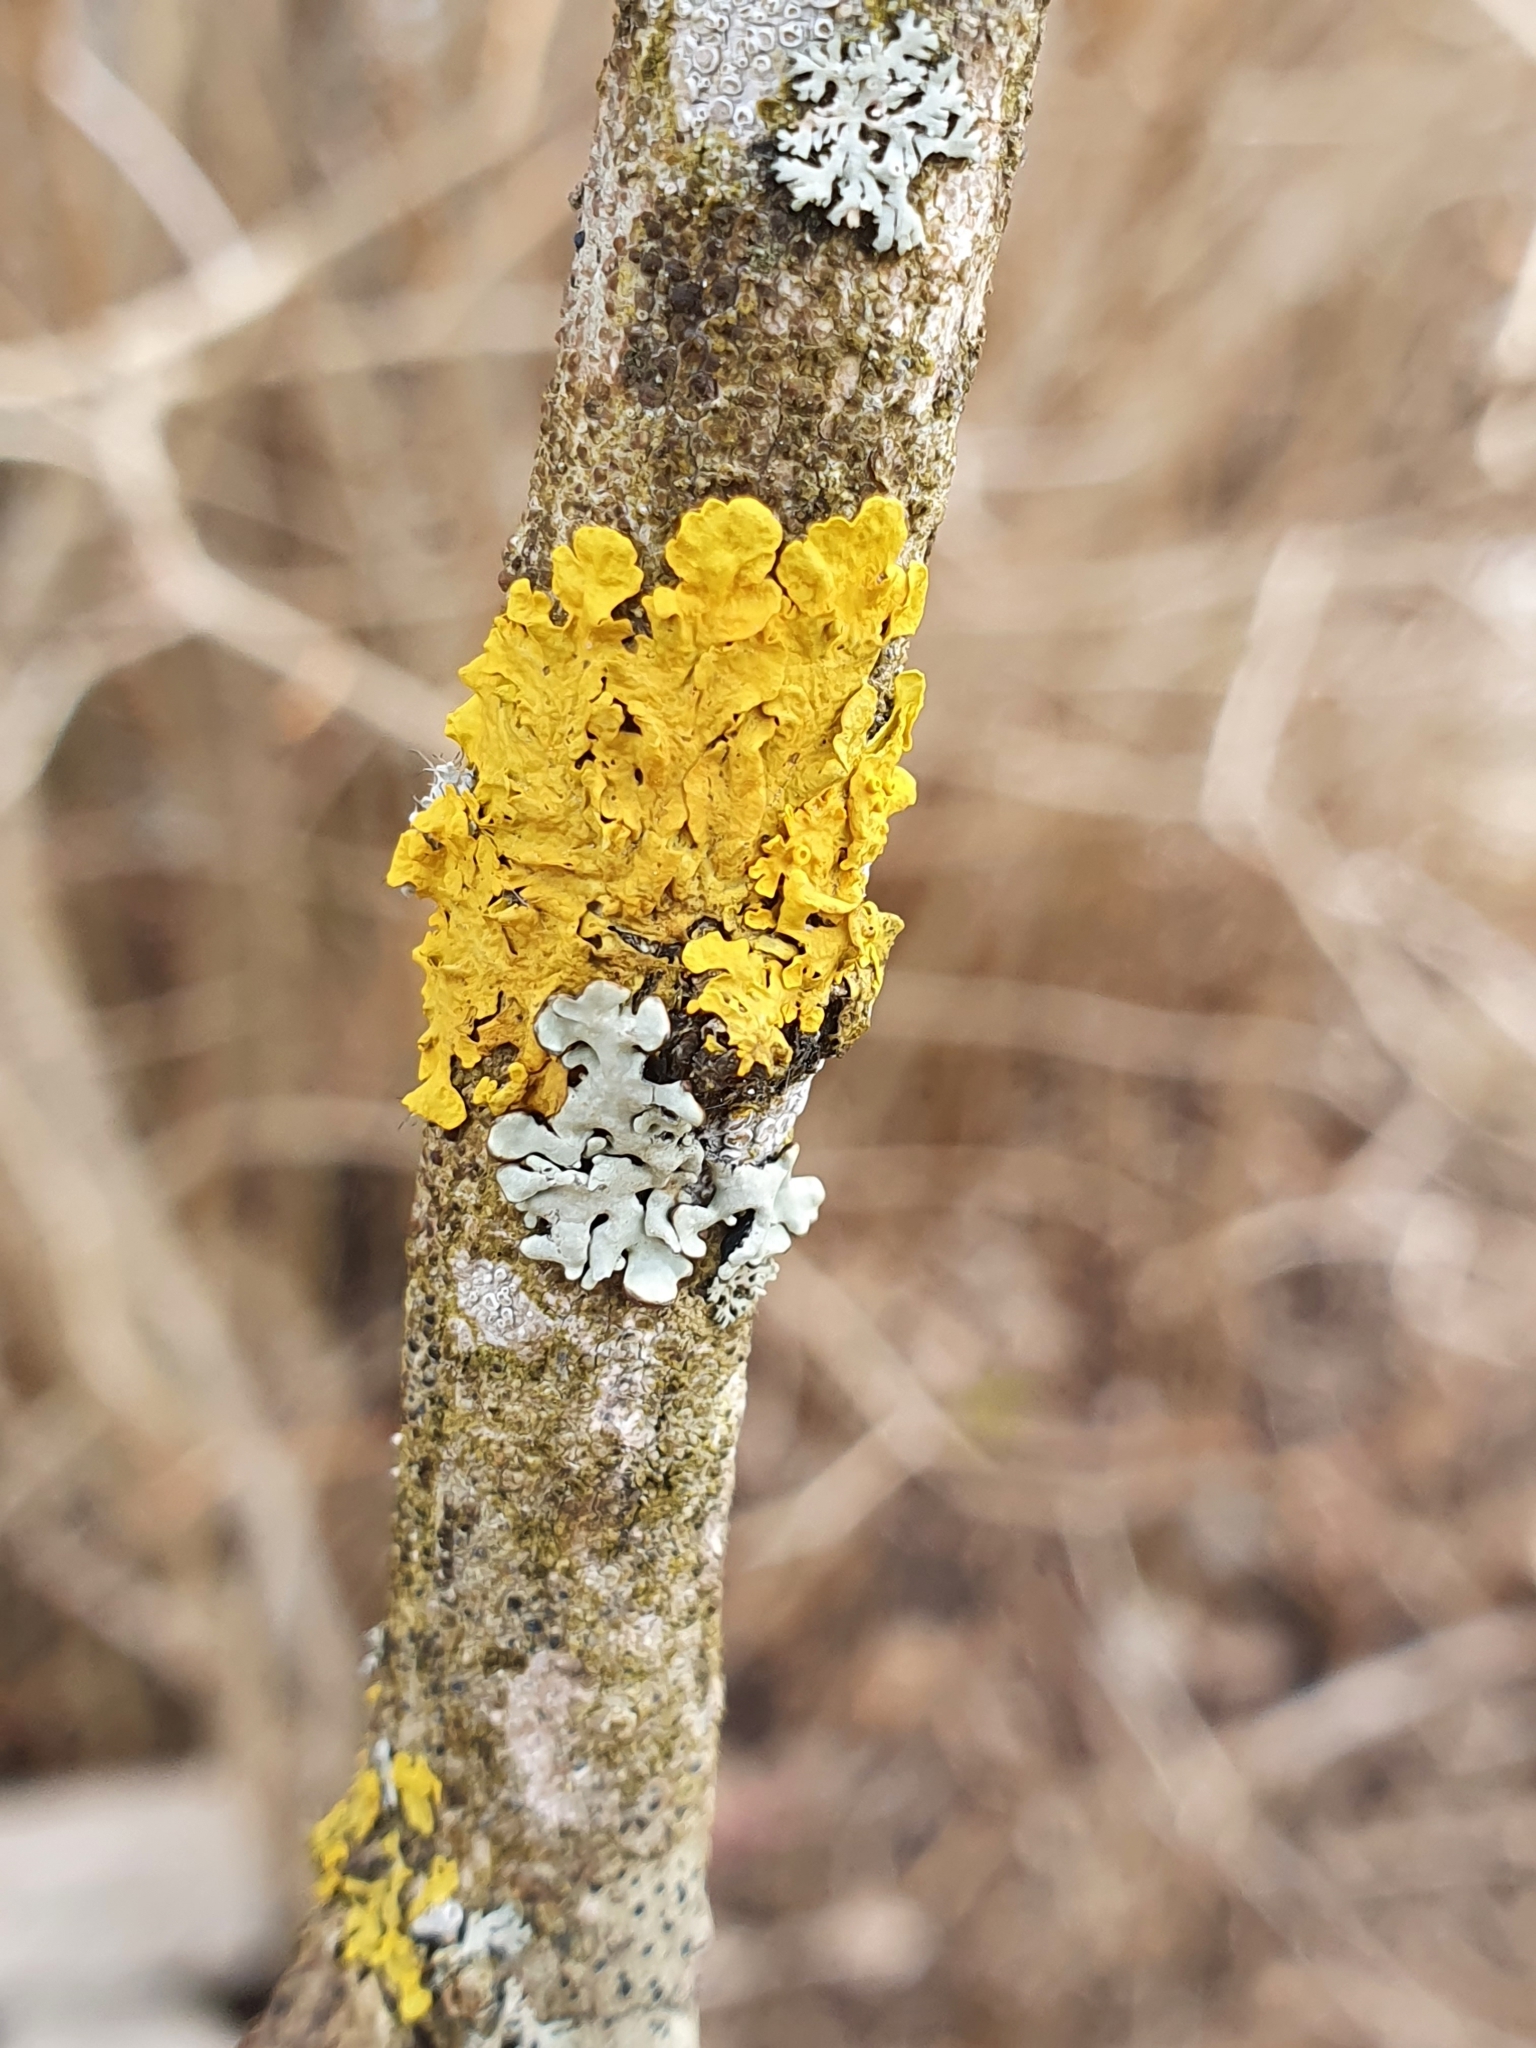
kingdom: Fungi
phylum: Ascomycota
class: Lecanoromycetes
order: Teloschistales
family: Teloschistaceae
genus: Xanthoria
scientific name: Xanthoria parietina
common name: Common orange lichen
